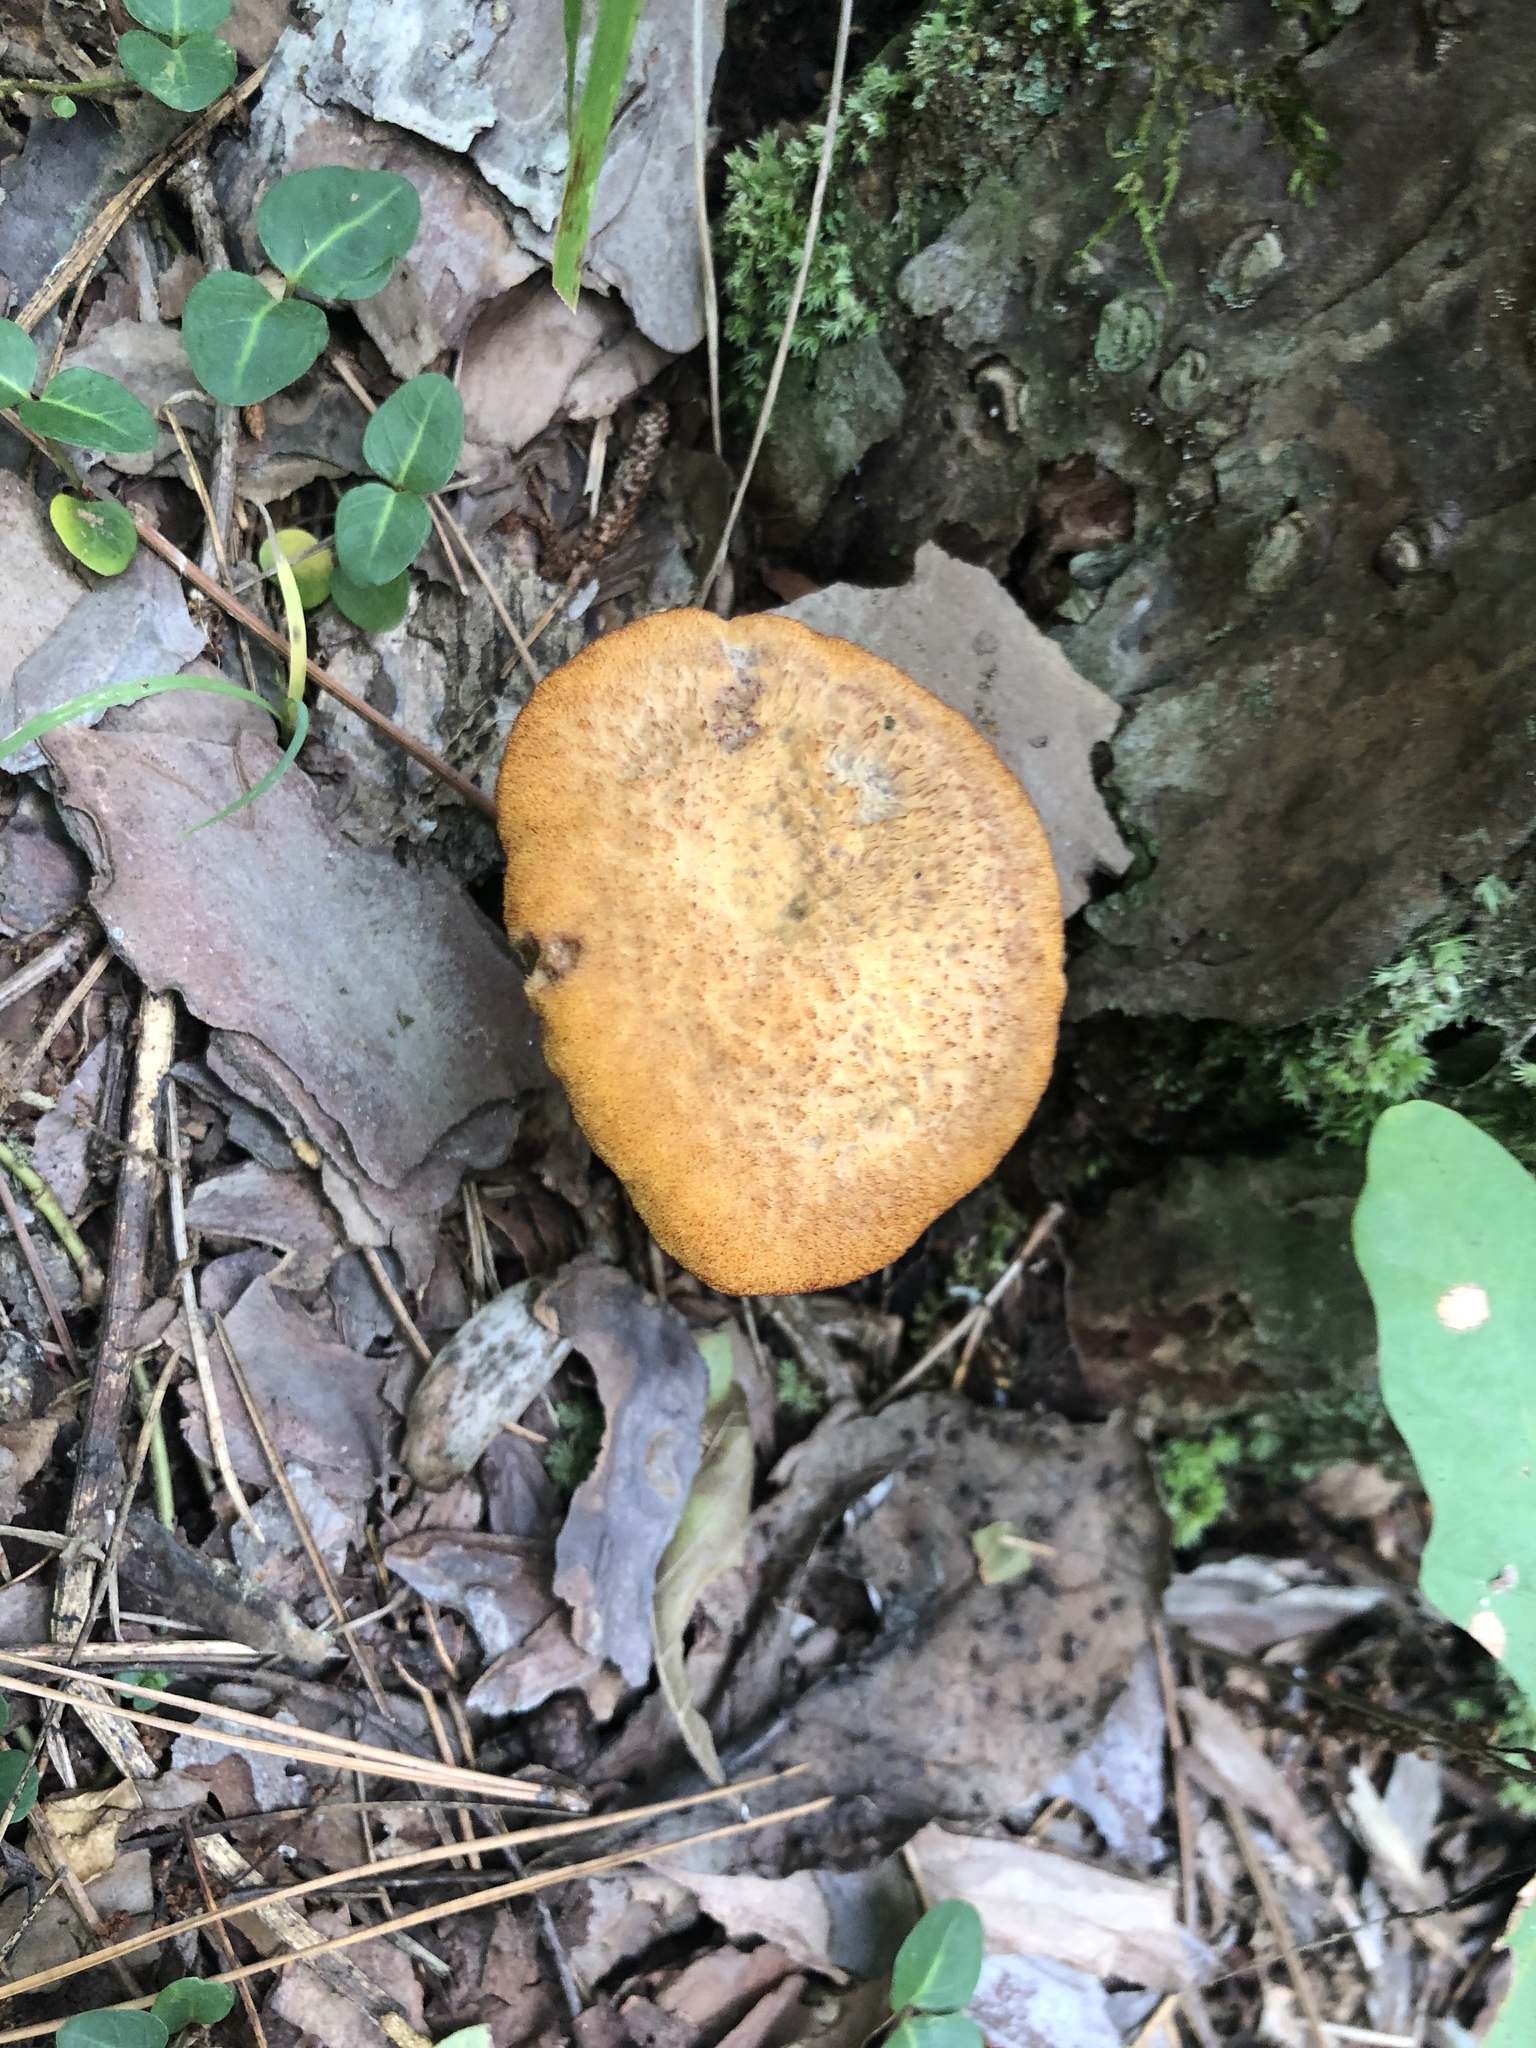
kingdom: Fungi
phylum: Basidiomycota
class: Agaricomycetes
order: Polyporales
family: Laetiporaceae
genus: Phaeolus
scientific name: Phaeolus schweinitzii
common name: Dyer's mazegill
